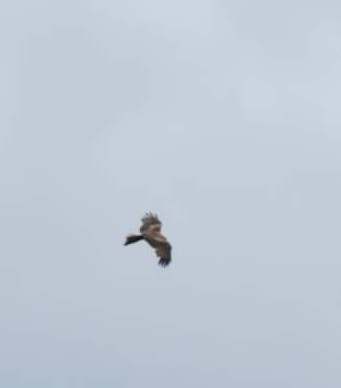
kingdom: Animalia
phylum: Chordata
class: Aves
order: Accipitriformes
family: Accipitridae
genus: Milvus
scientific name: Milvus migrans
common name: Black kite
